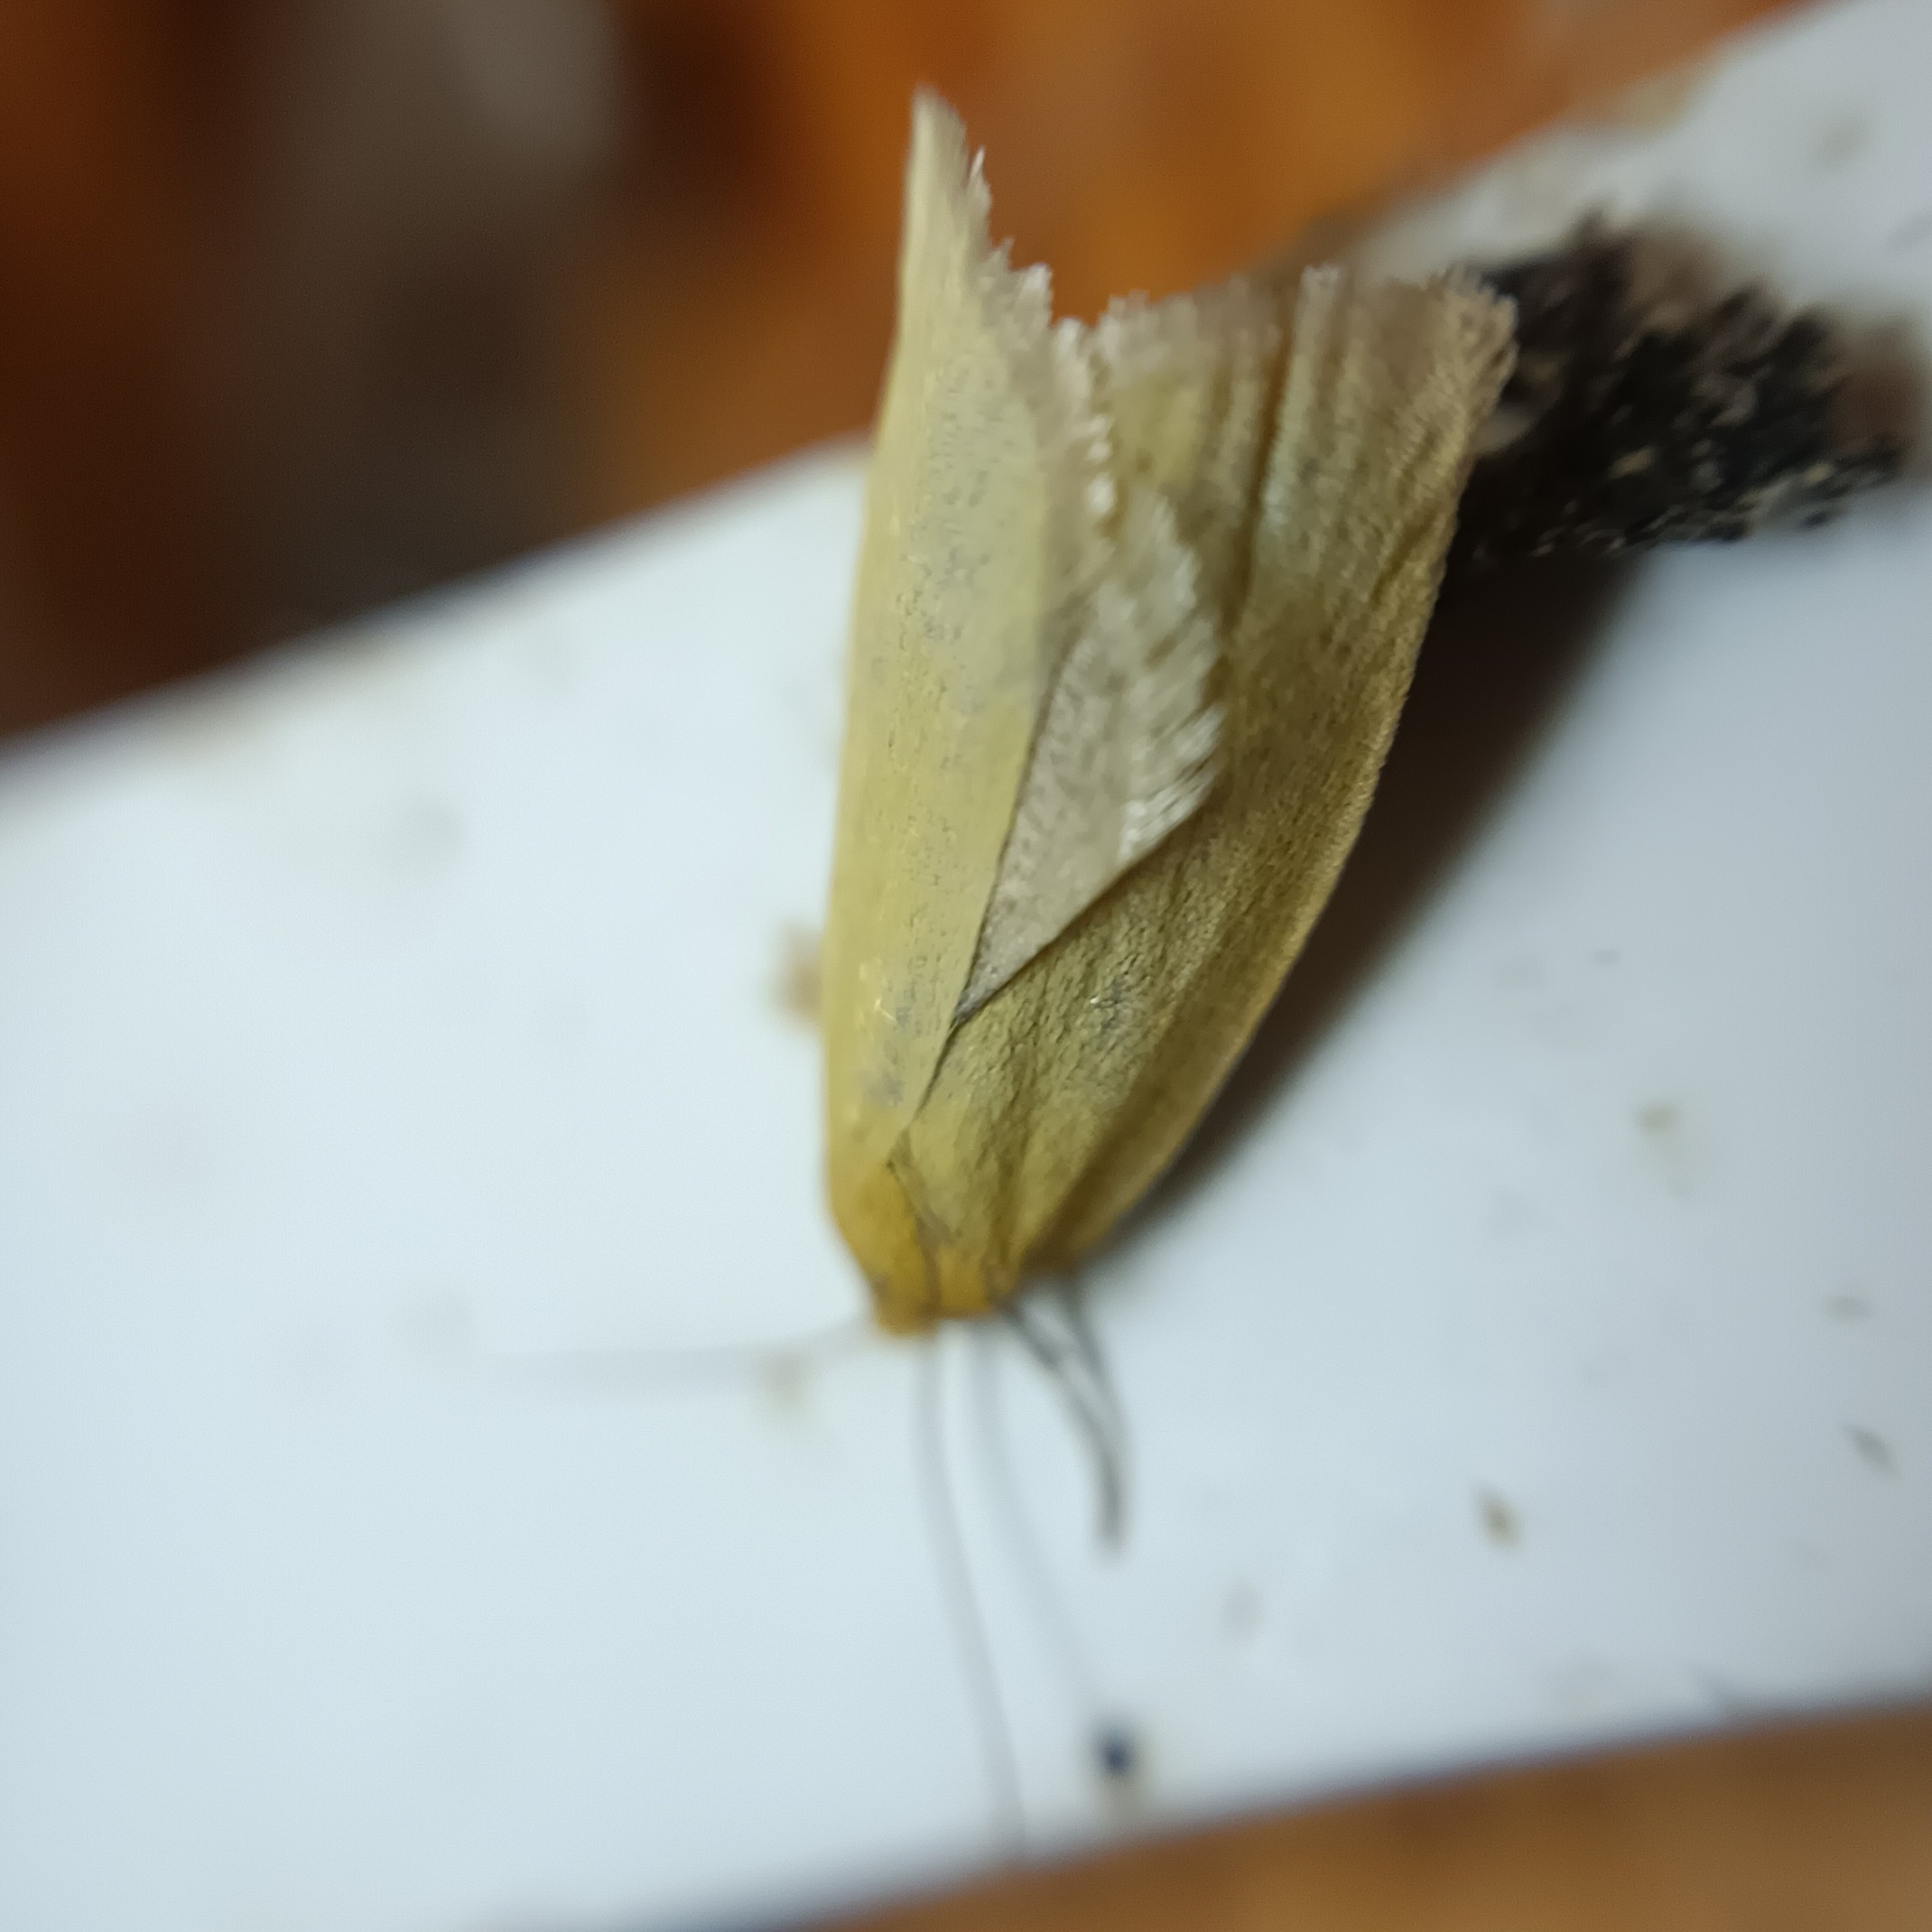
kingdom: Animalia
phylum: Arthropoda
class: Insecta
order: Lepidoptera
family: Tortricidae
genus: Aphelia
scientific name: Aphelia Zelotherses paleana
